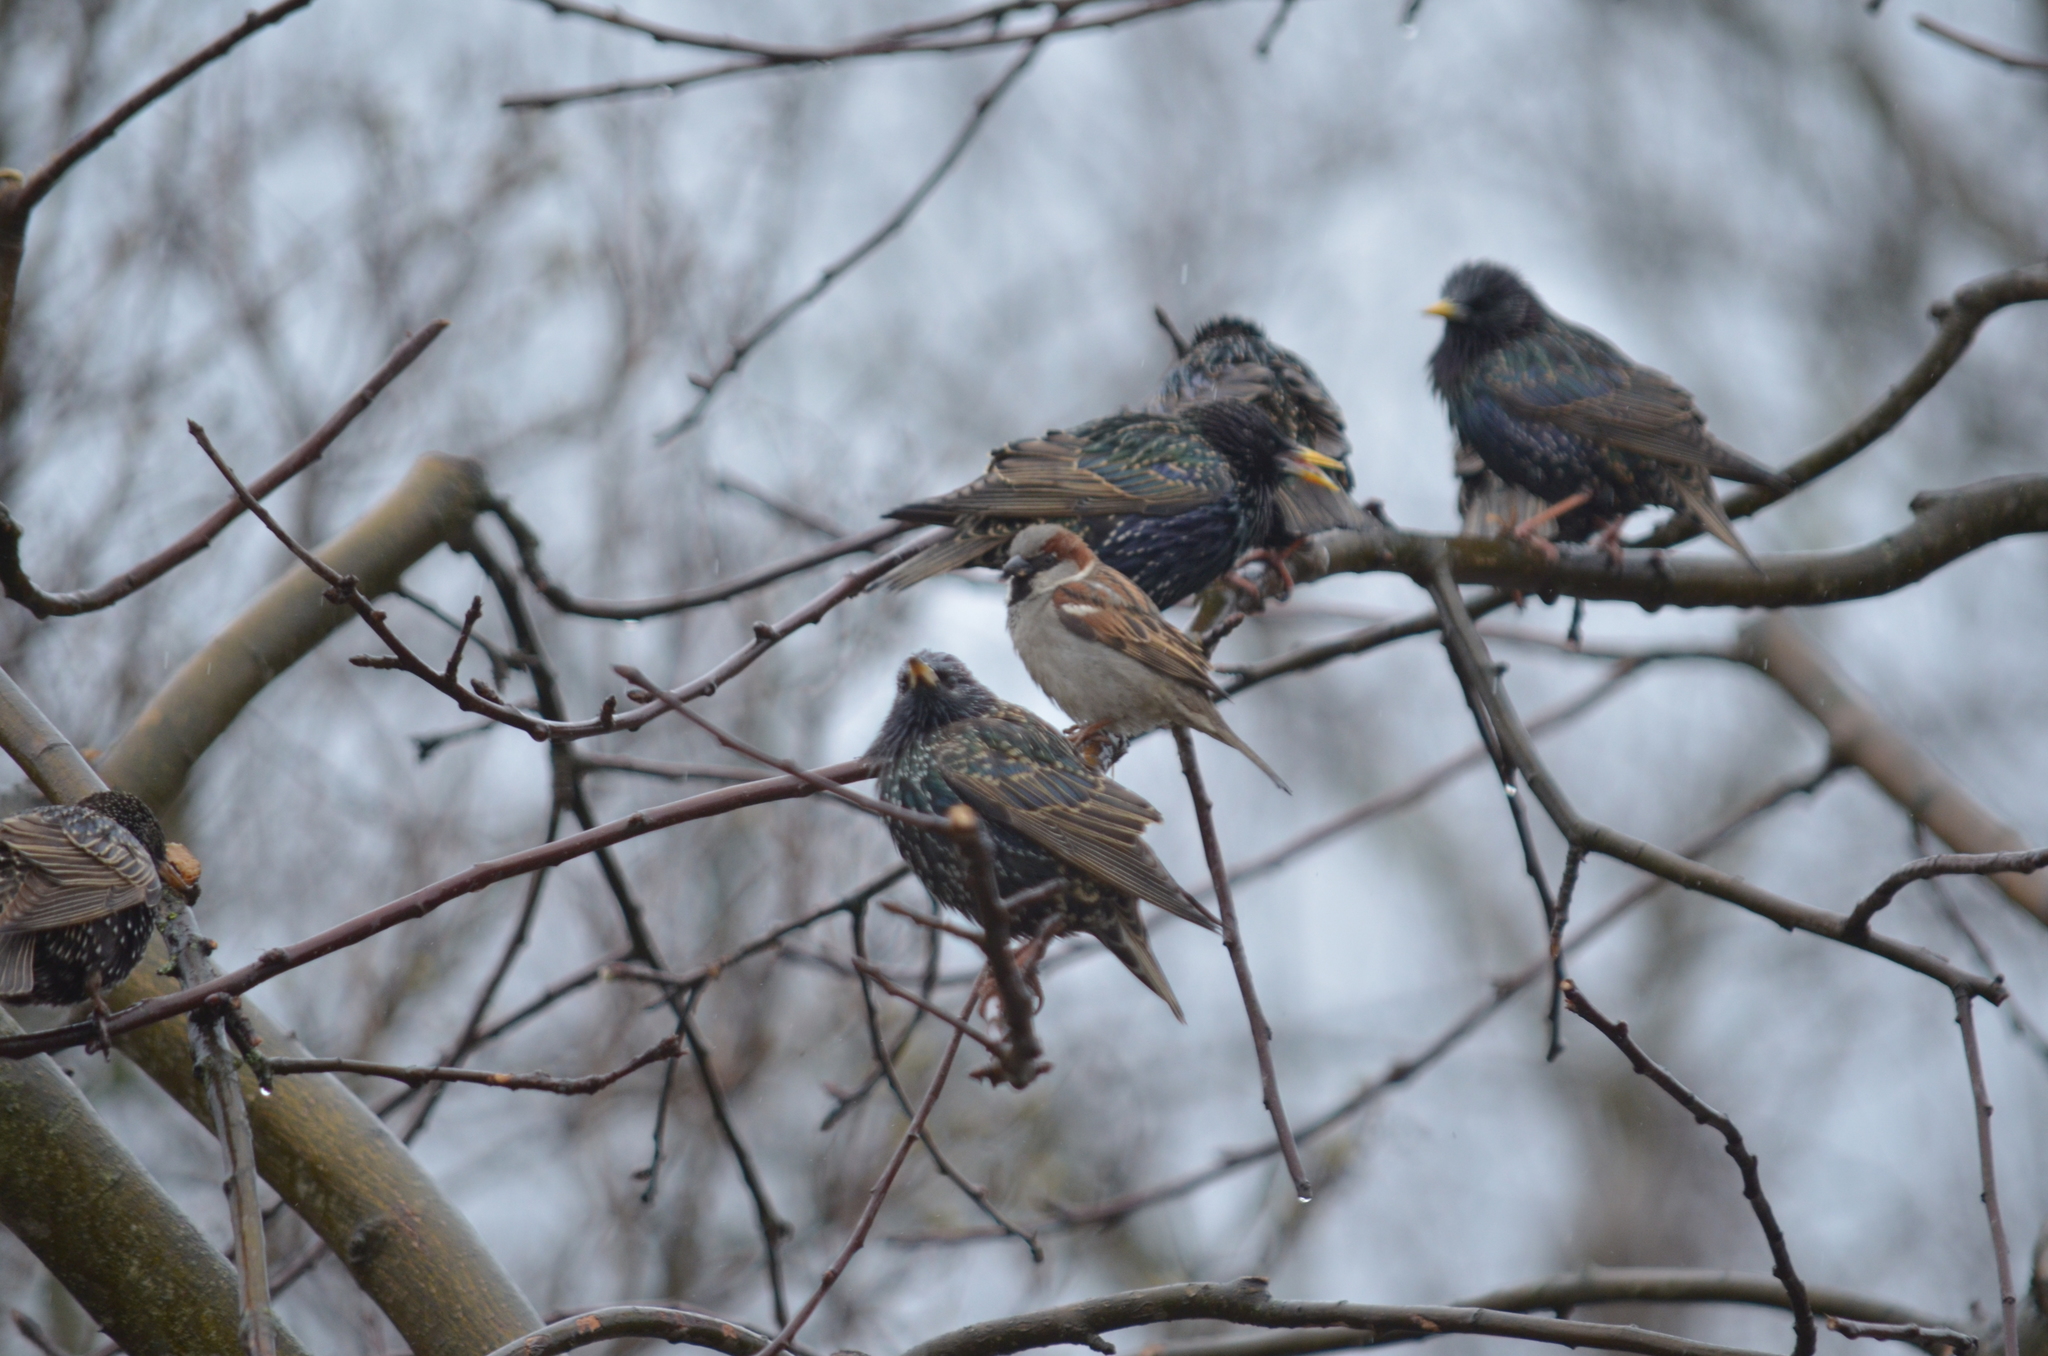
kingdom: Animalia
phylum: Chordata
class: Aves
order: Passeriformes
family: Passeridae
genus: Passer
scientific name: Passer domesticus
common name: House sparrow
